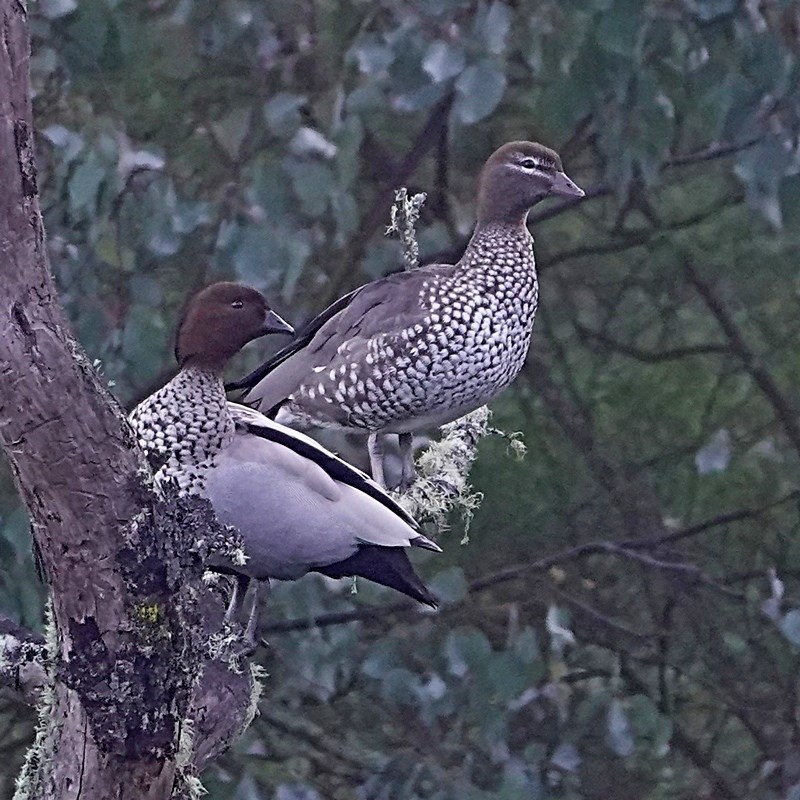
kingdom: Animalia
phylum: Chordata
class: Aves
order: Anseriformes
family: Anatidae
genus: Chenonetta
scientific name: Chenonetta jubata
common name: Maned duck
